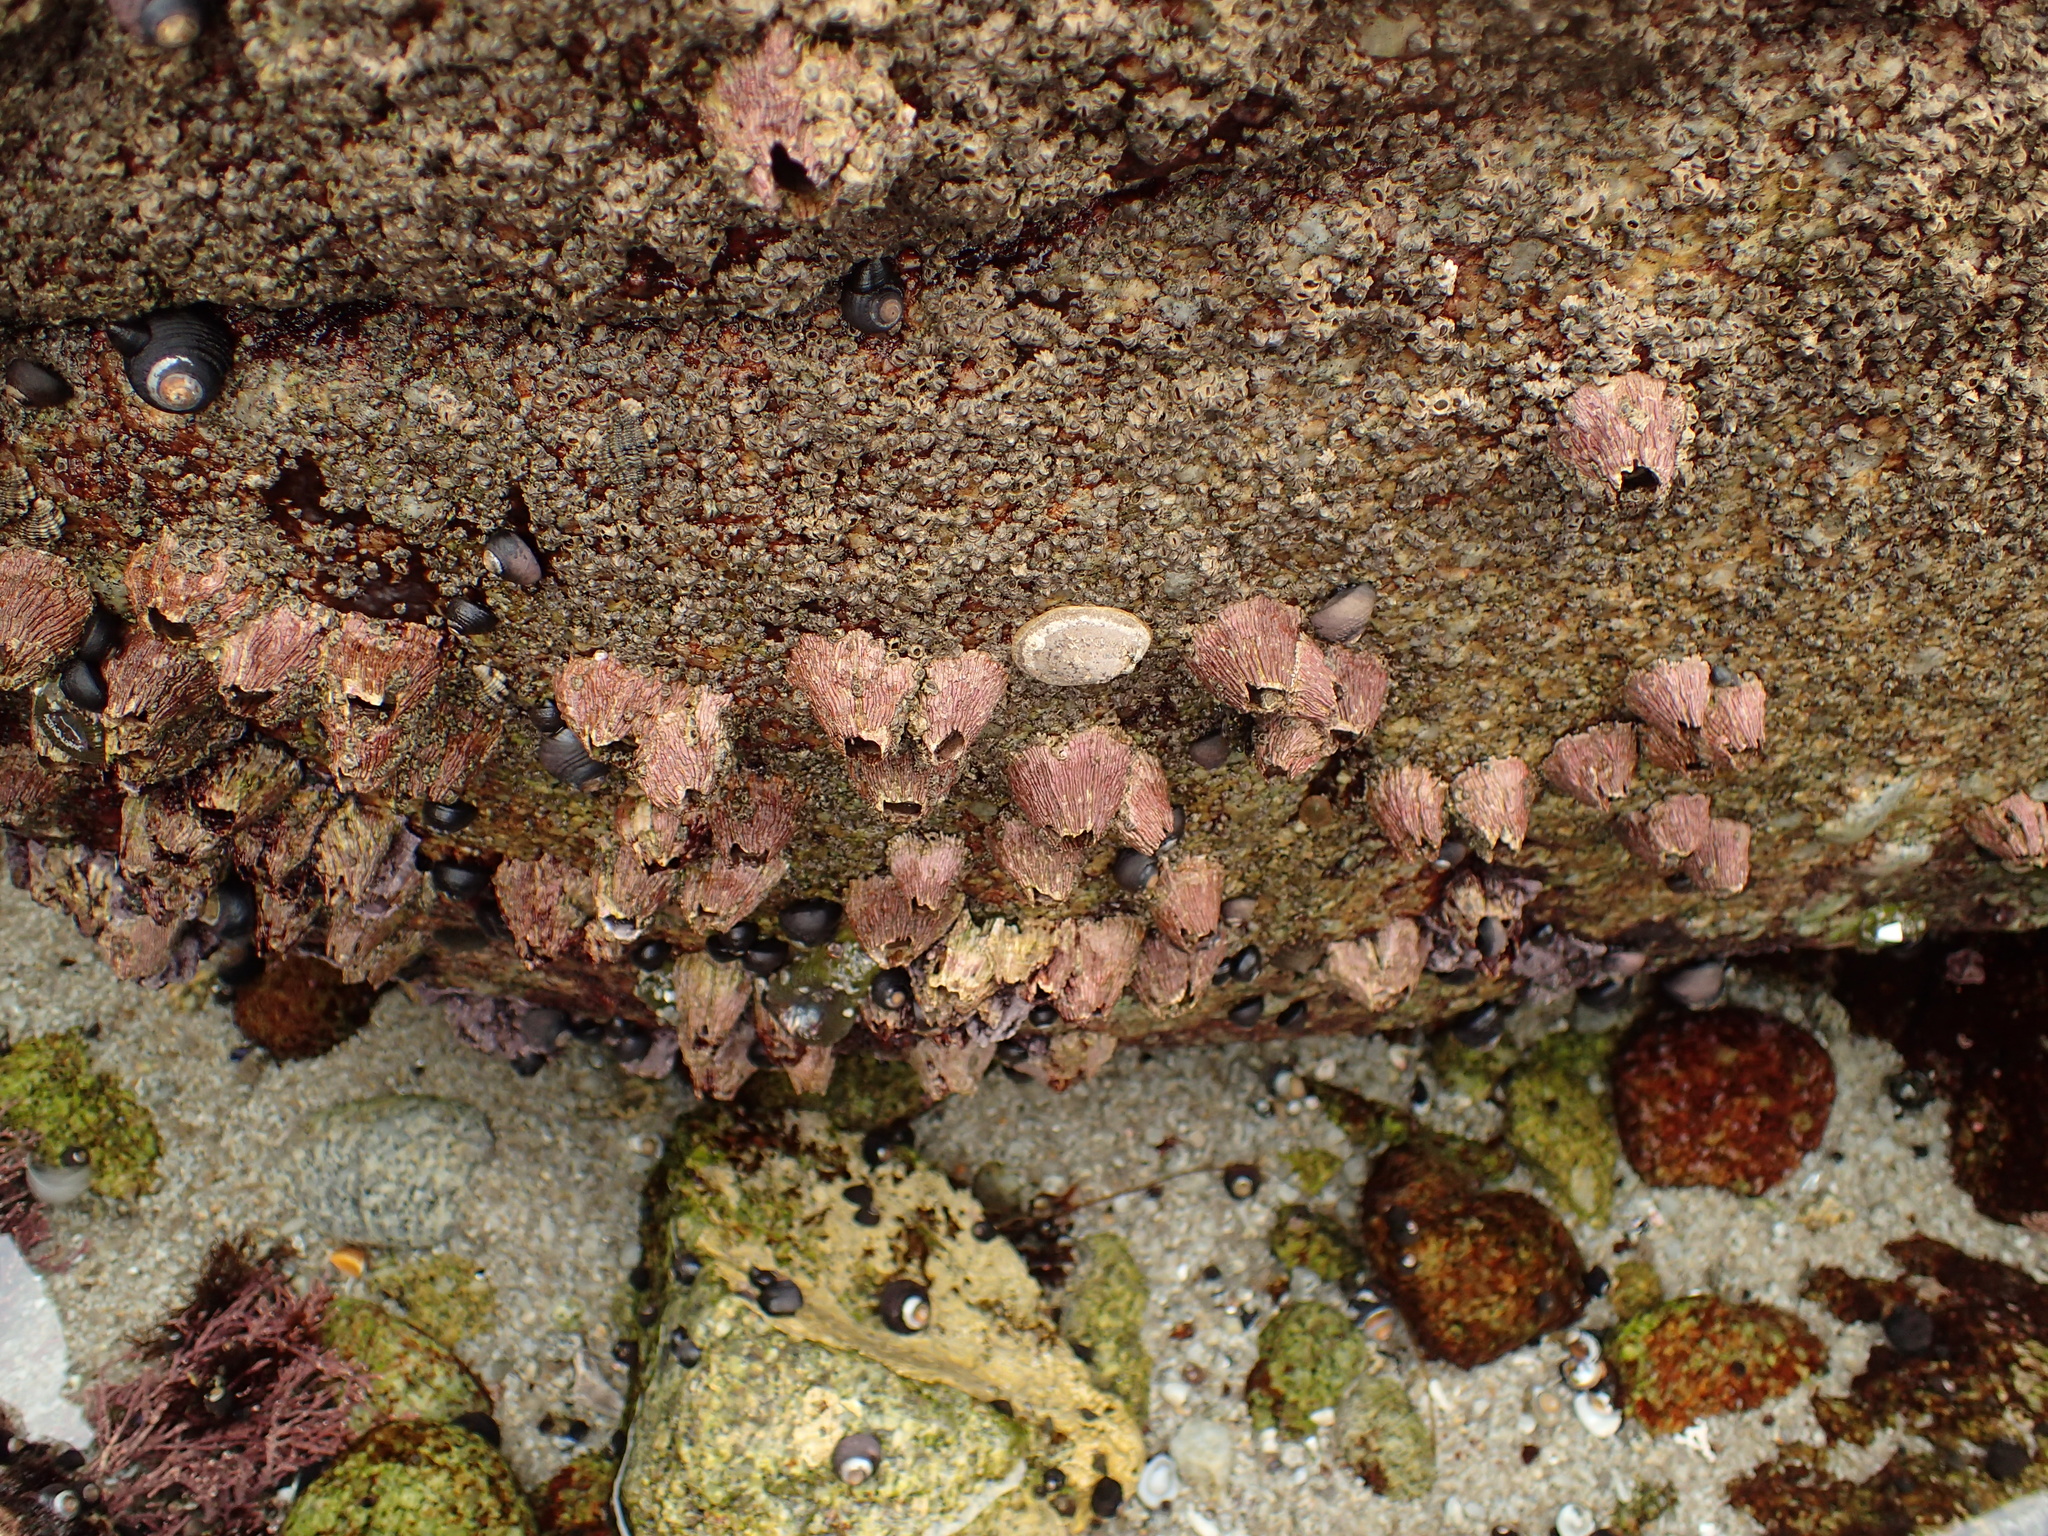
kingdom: Animalia
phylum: Arthropoda
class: Maxillopoda
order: Sessilia
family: Tetraclitidae
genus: Tetraclita
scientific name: Tetraclita rubescens
